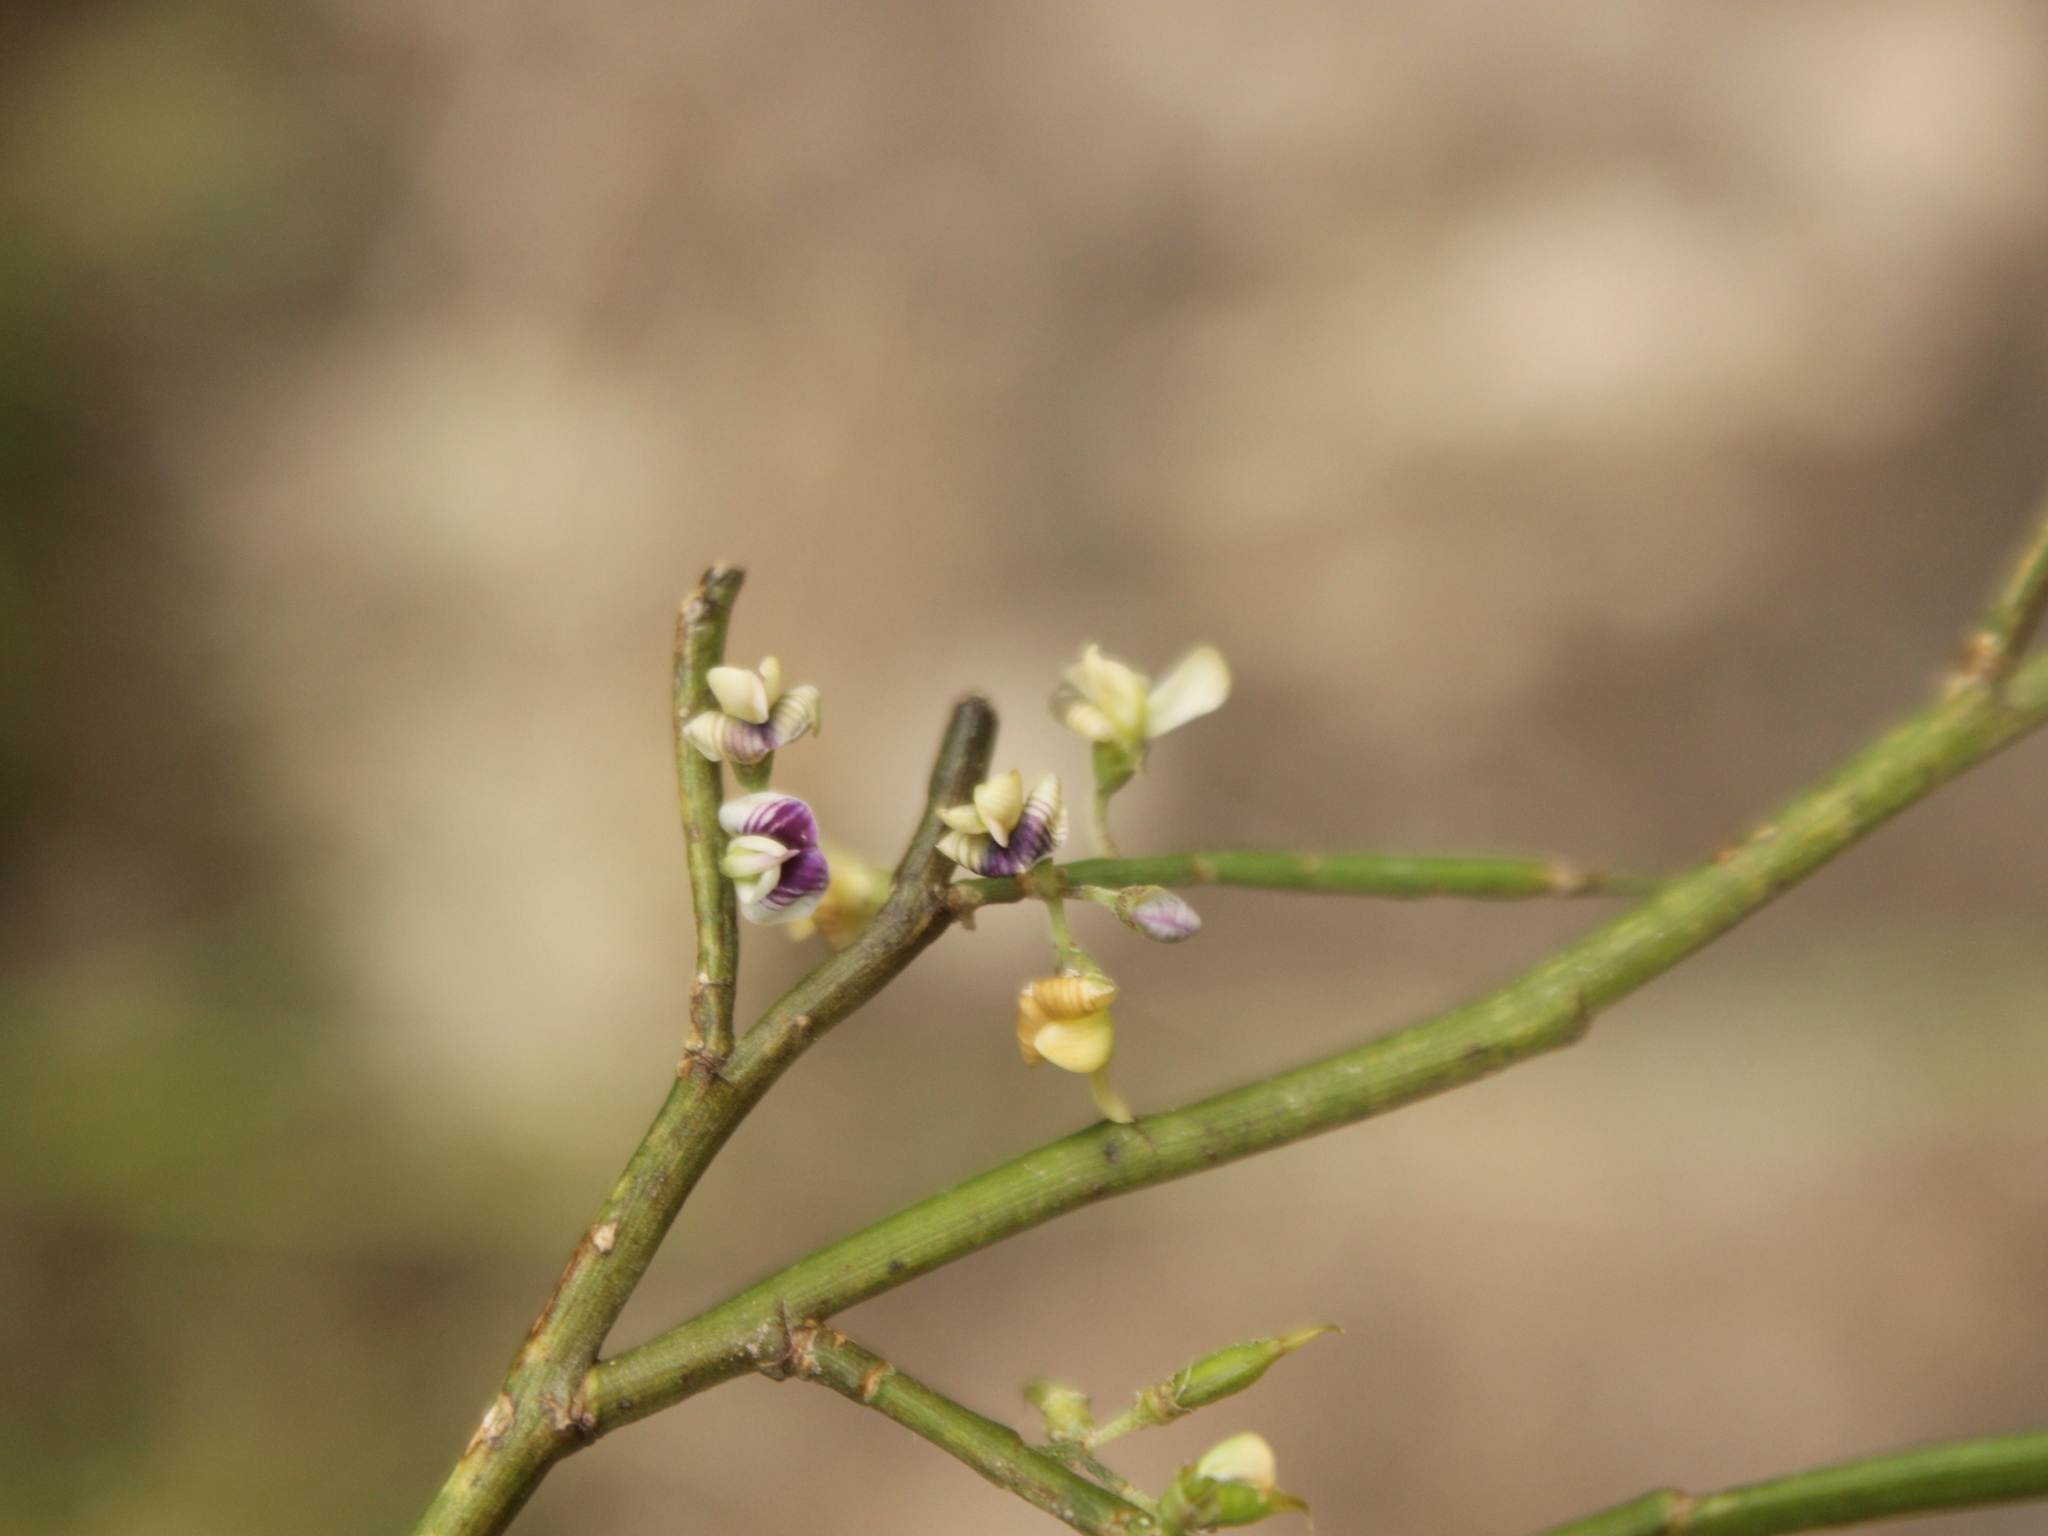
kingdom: Plantae
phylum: Tracheophyta
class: Magnoliopsida
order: Fabales
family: Fabaceae
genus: Carmichaelia
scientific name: Carmichaelia australis
